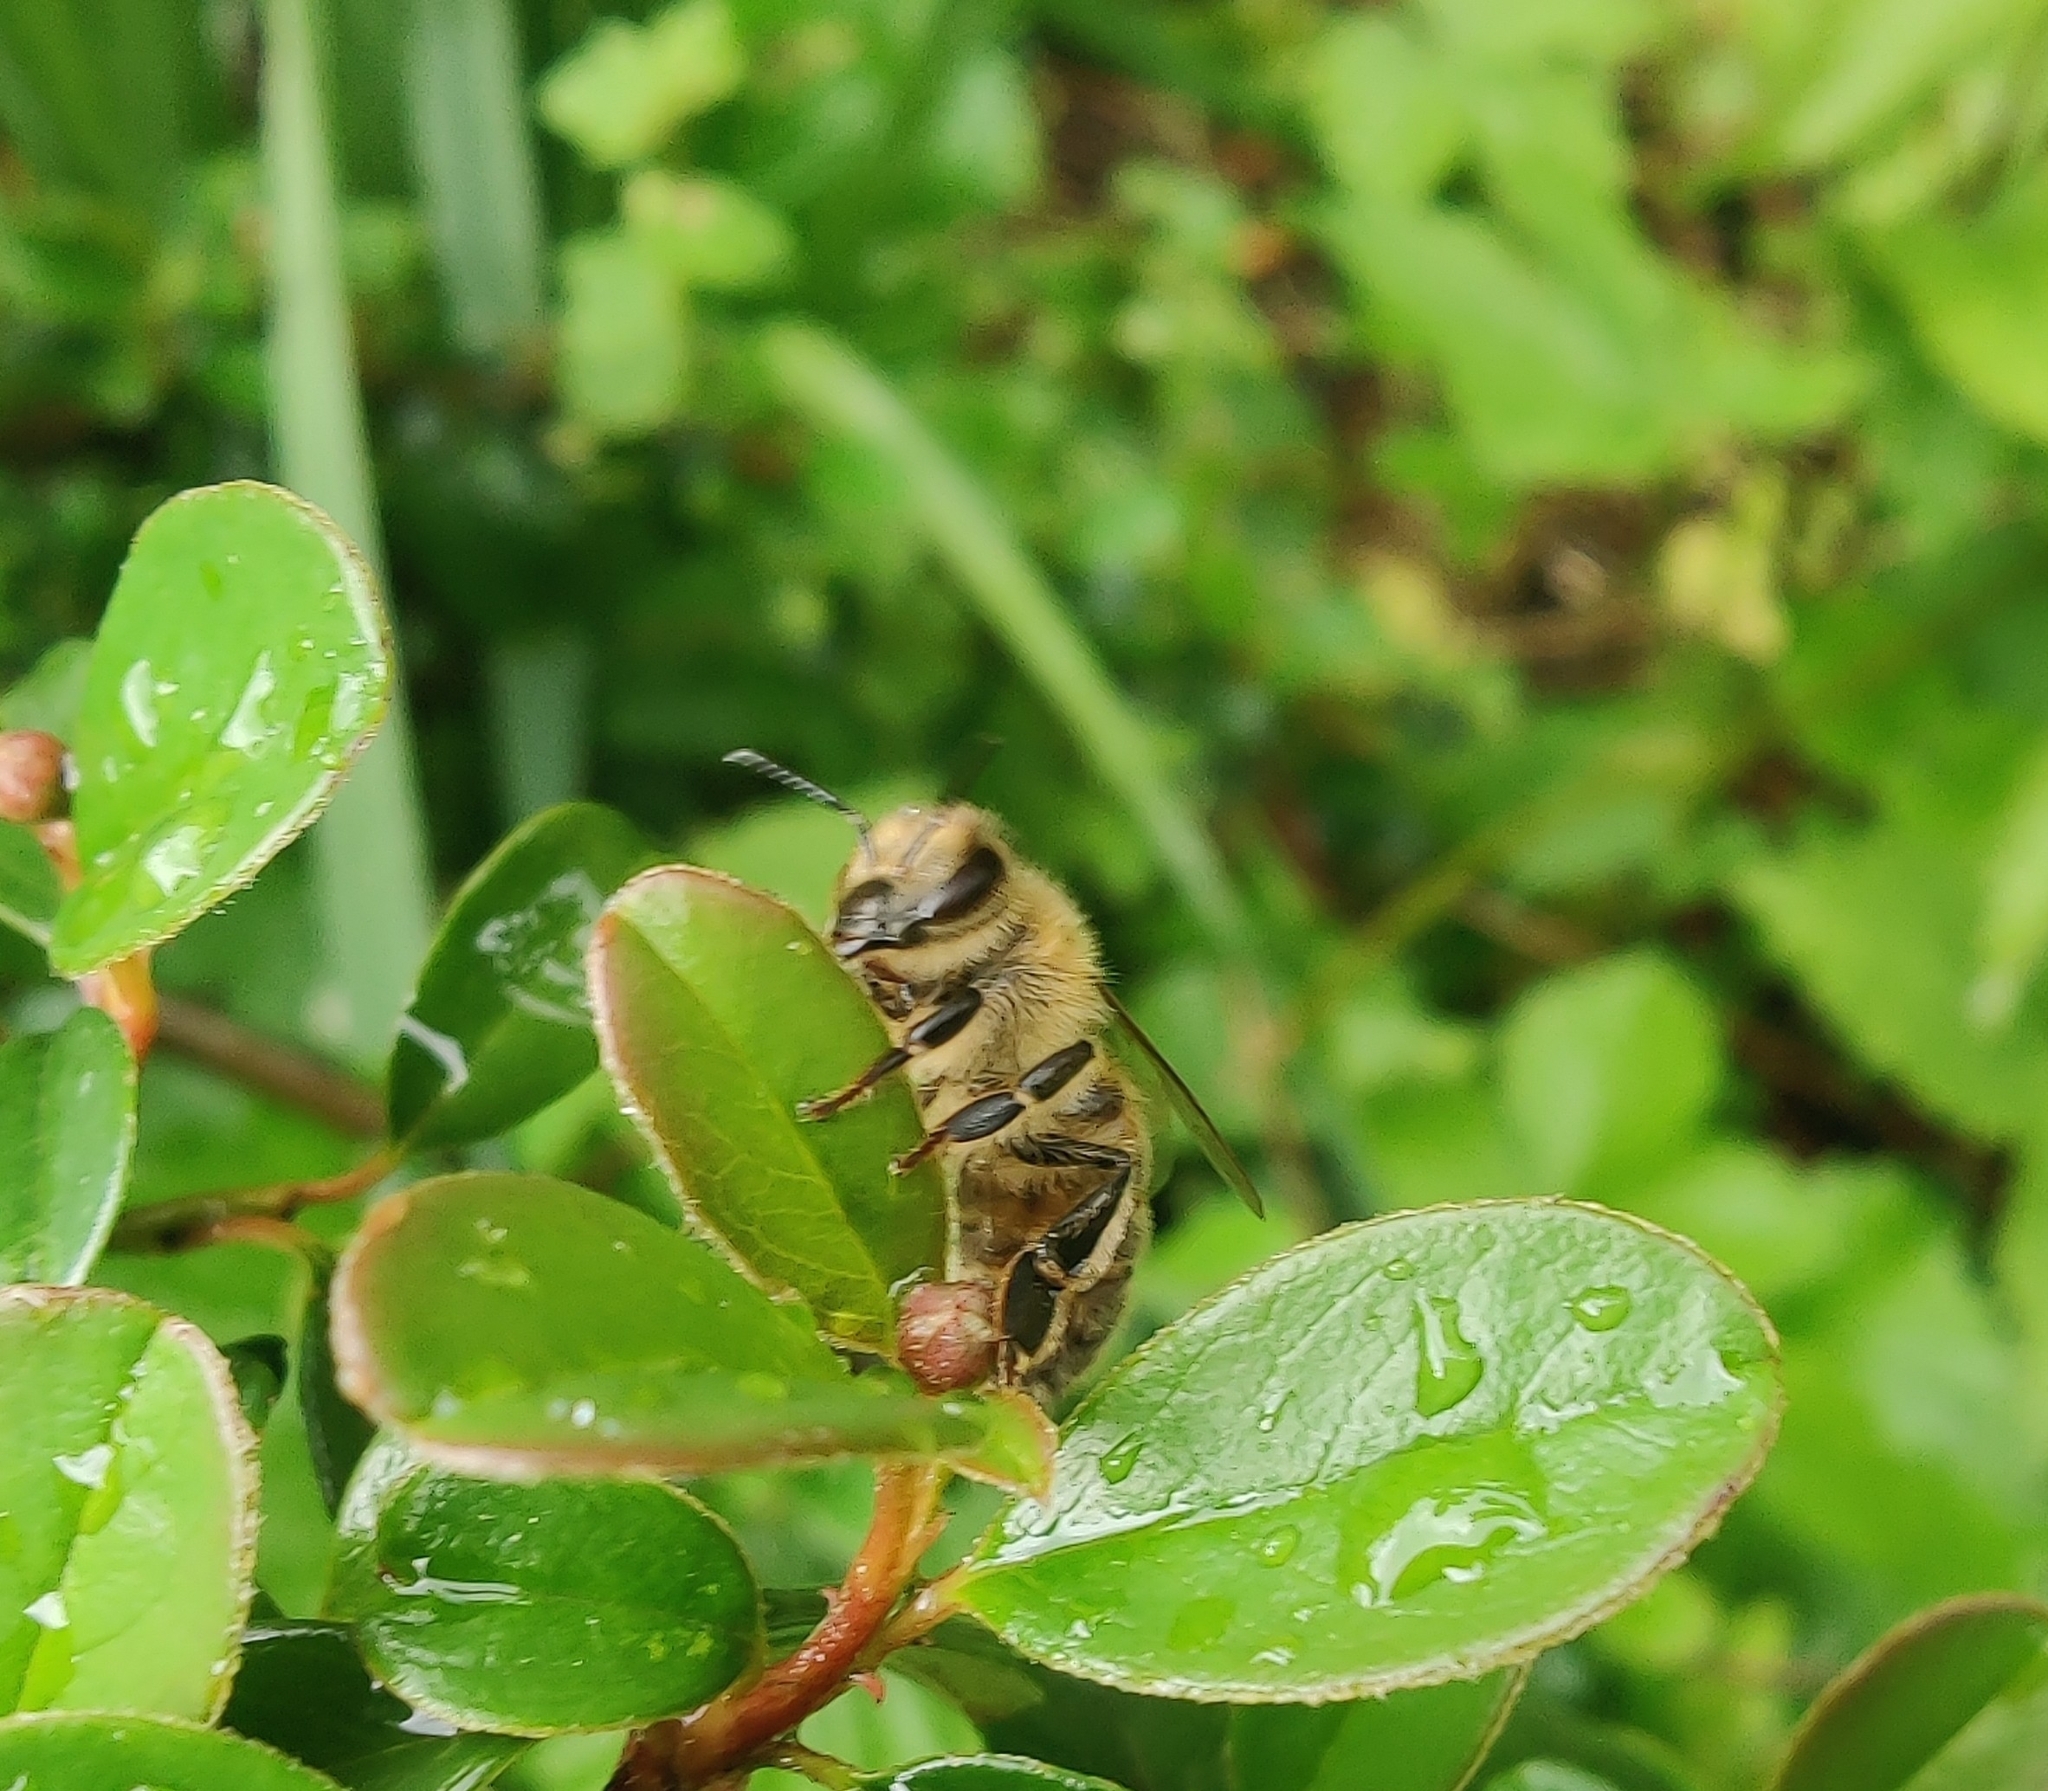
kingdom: Animalia
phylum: Arthropoda
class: Insecta
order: Hymenoptera
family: Apidae
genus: Apis
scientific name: Apis mellifera
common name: Honey bee
